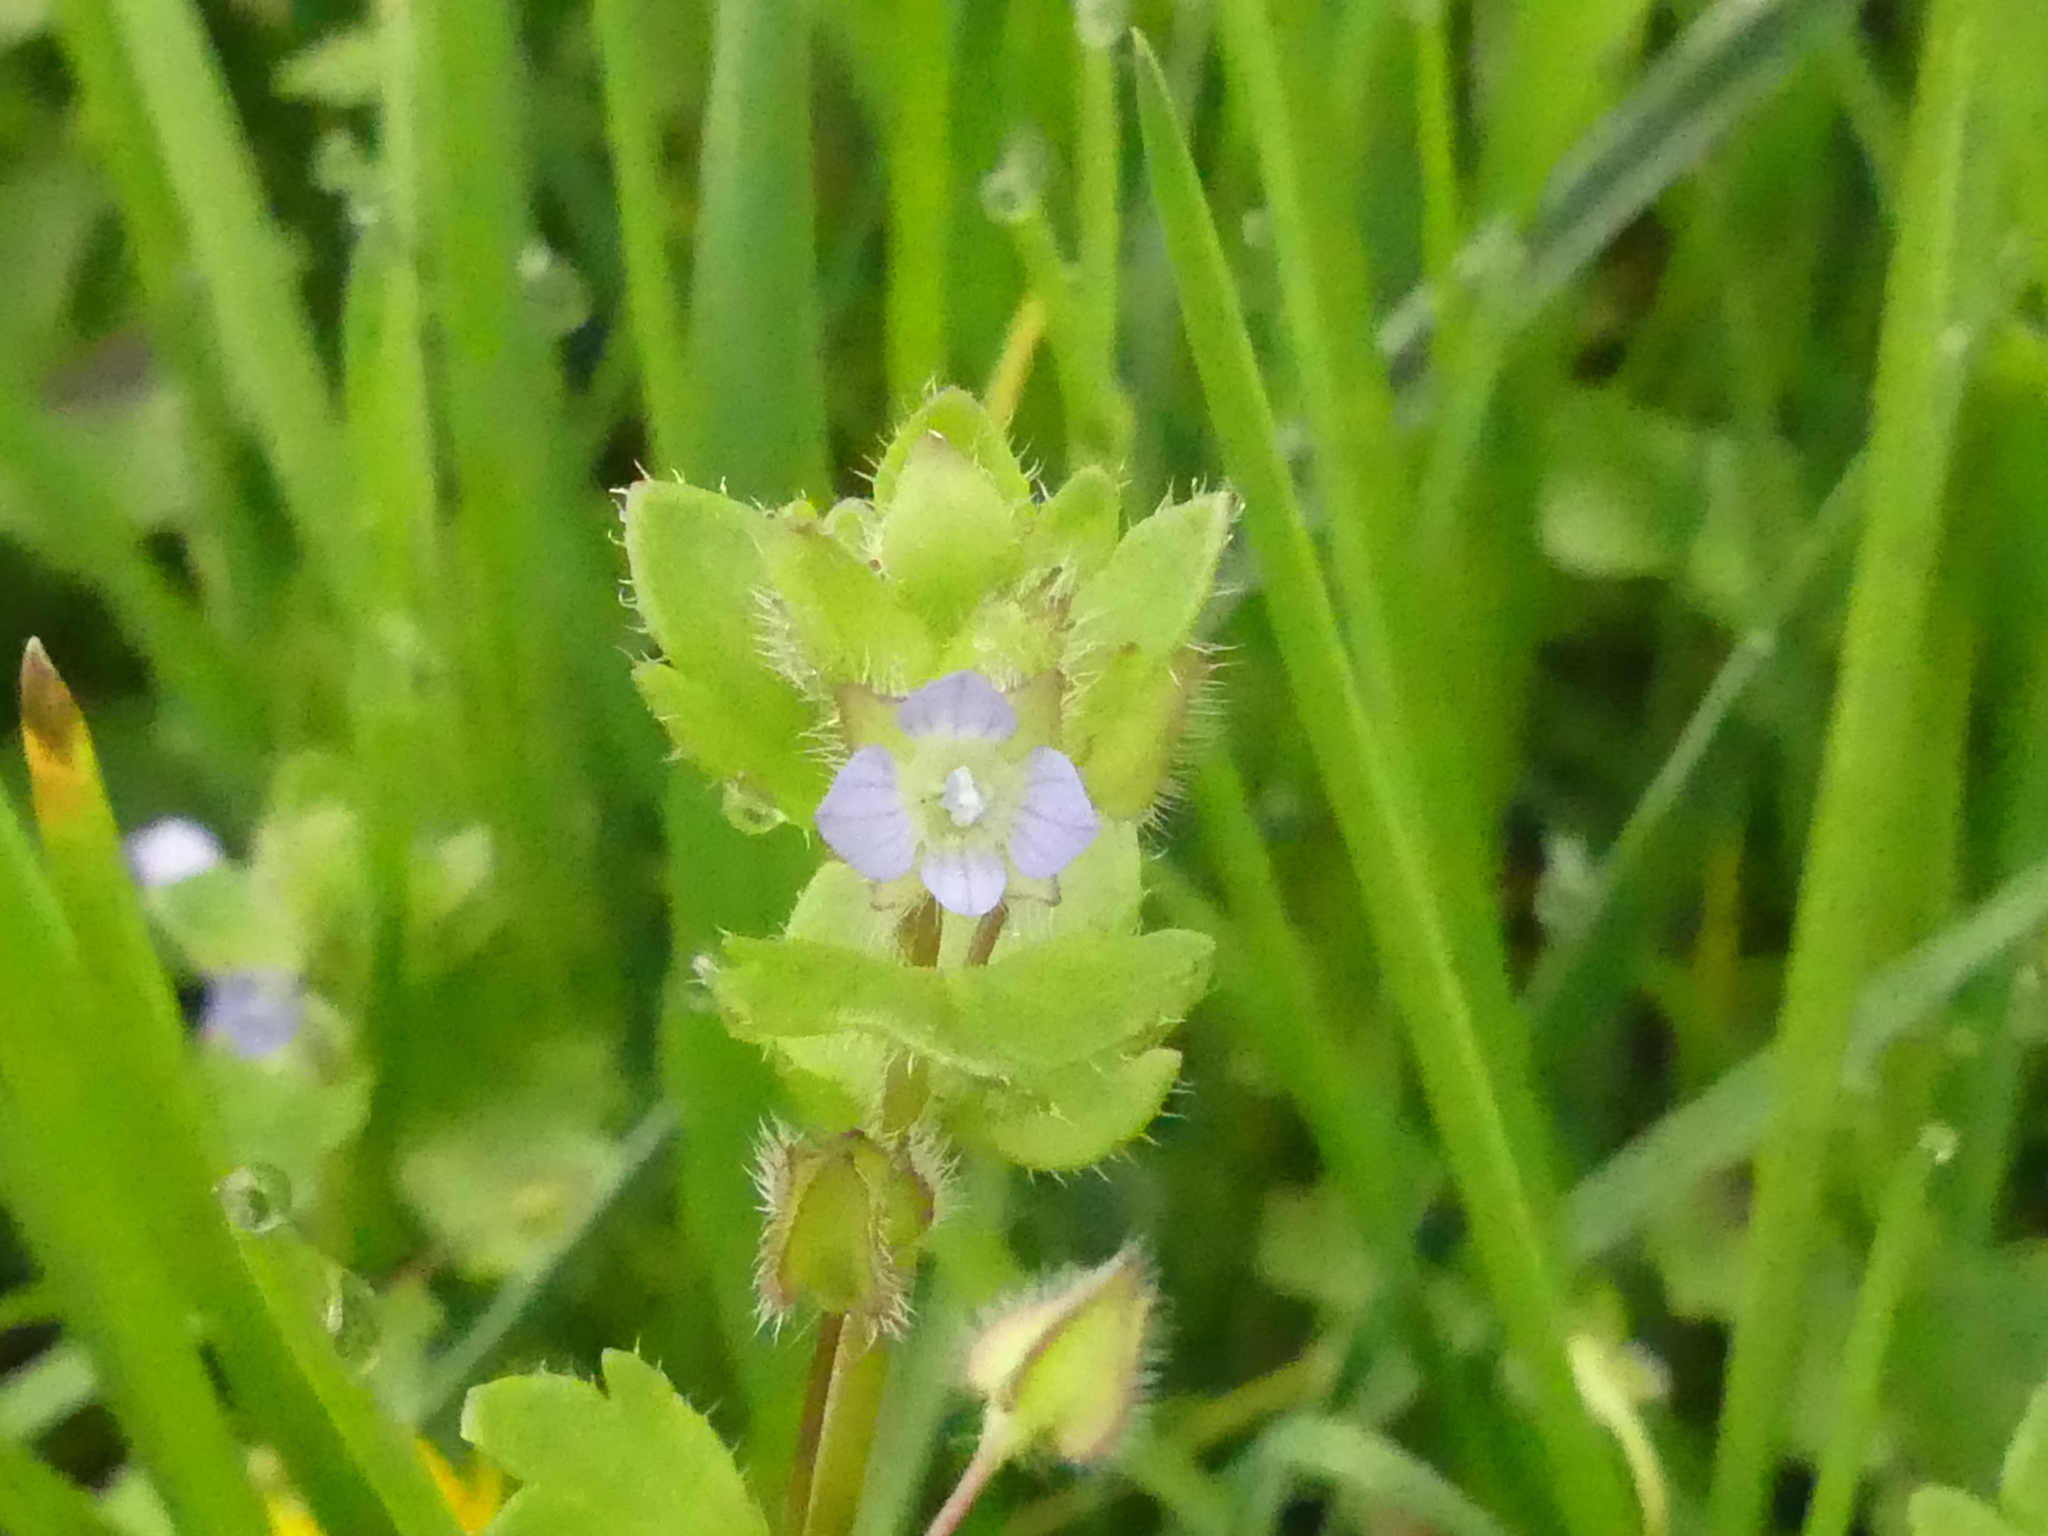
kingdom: Plantae
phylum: Tracheophyta
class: Magnoliopsida
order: Lamiales
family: Plantaginaceae
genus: Veronica
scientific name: Veronica hederifolia
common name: Ivy-leaved speedwell
